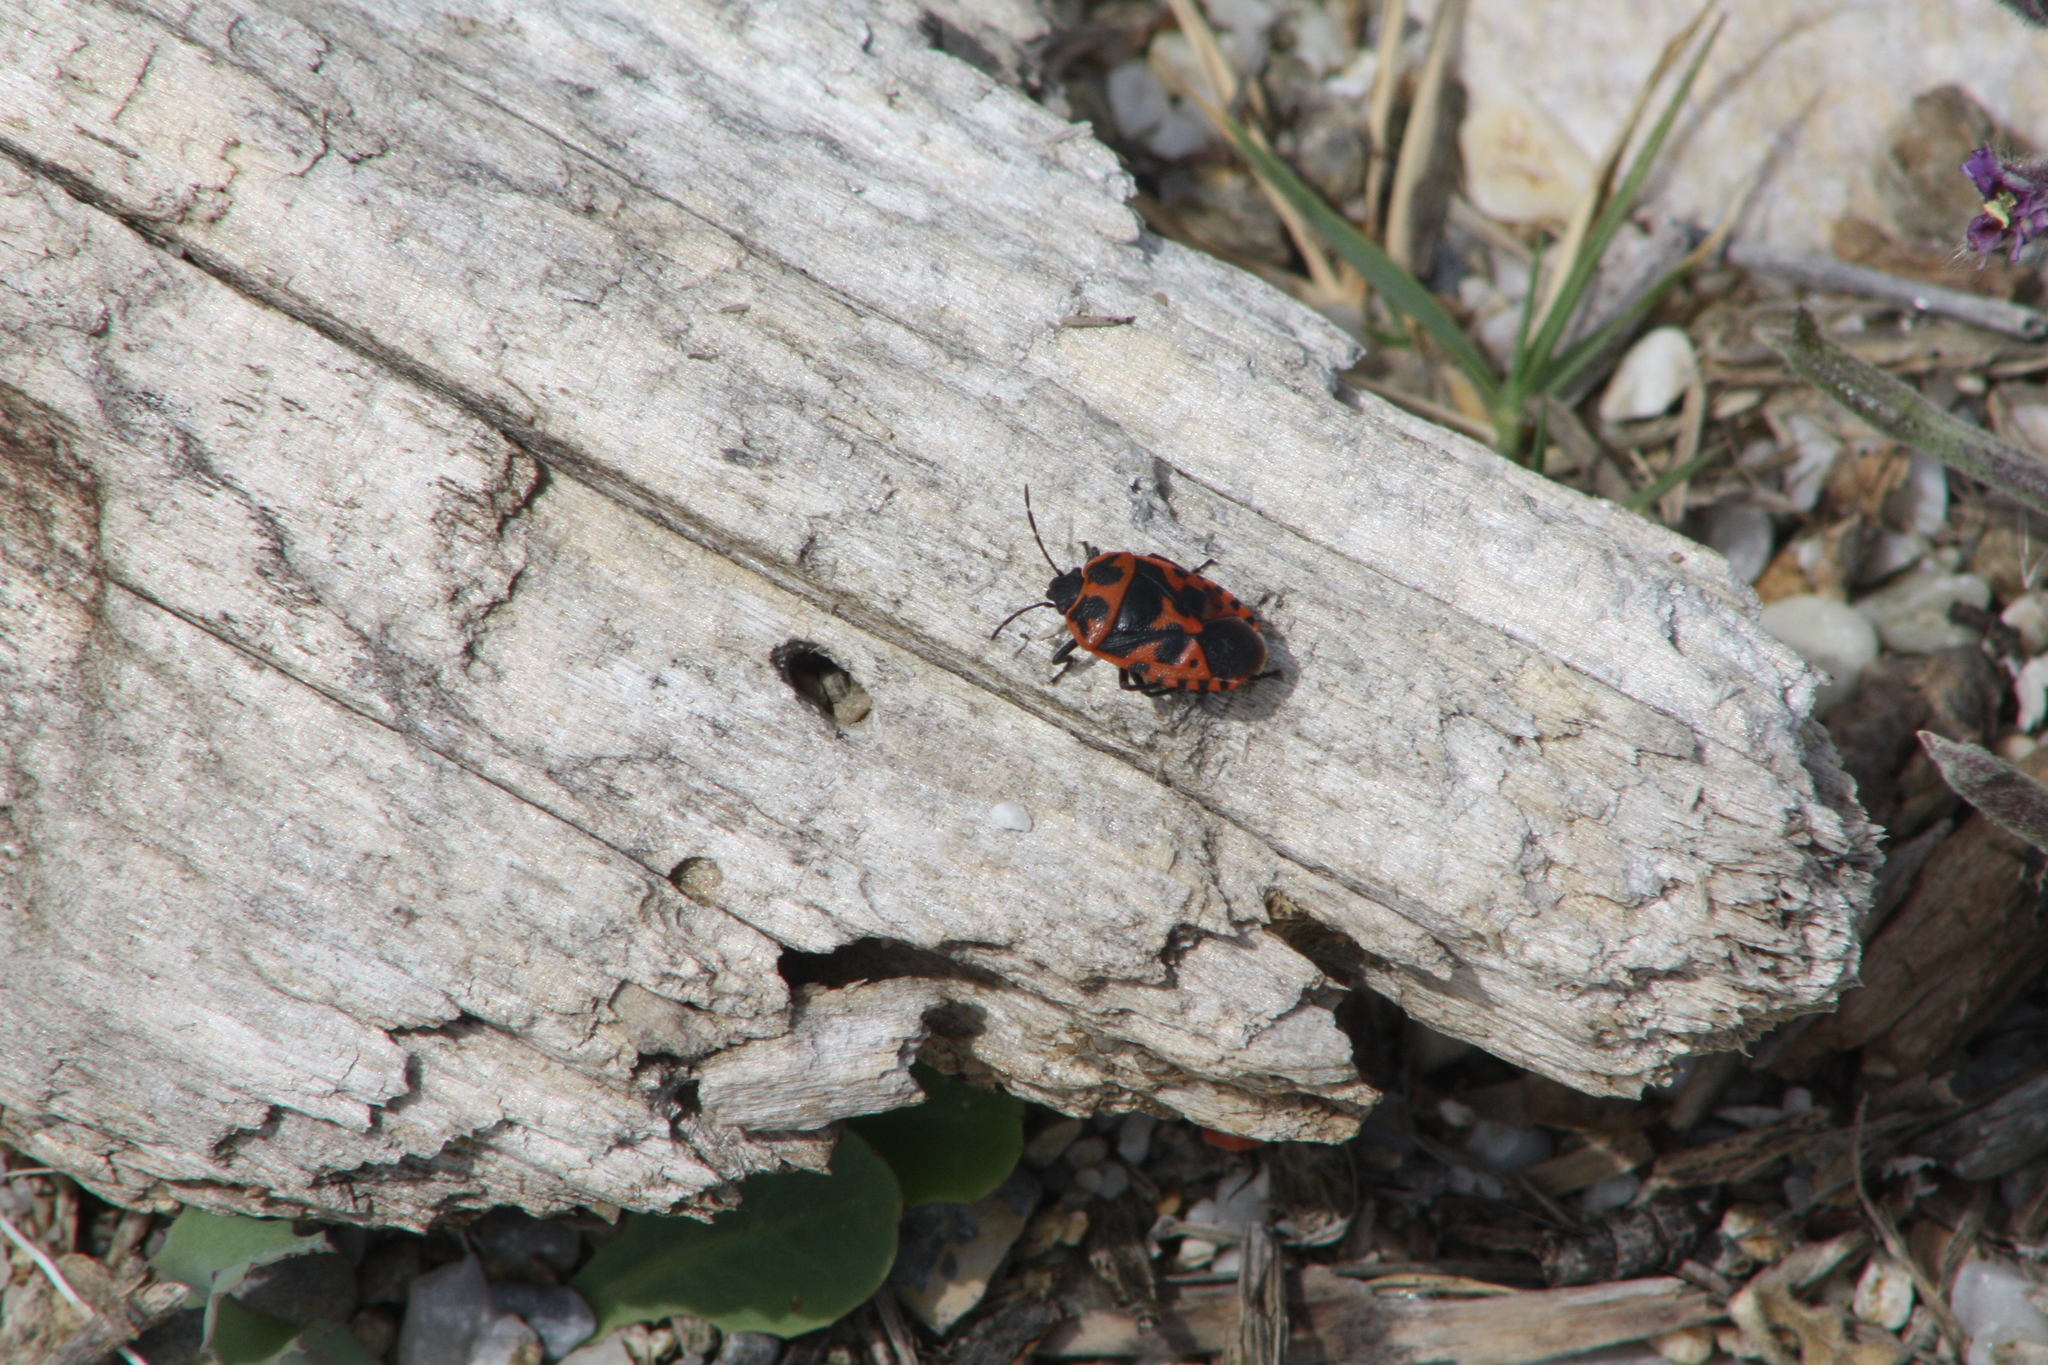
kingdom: Animalia
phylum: Arthropoda
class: Insecta
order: Hemiptera
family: Pentatomidae
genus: Eurydema
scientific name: Eurydema spectabilis
